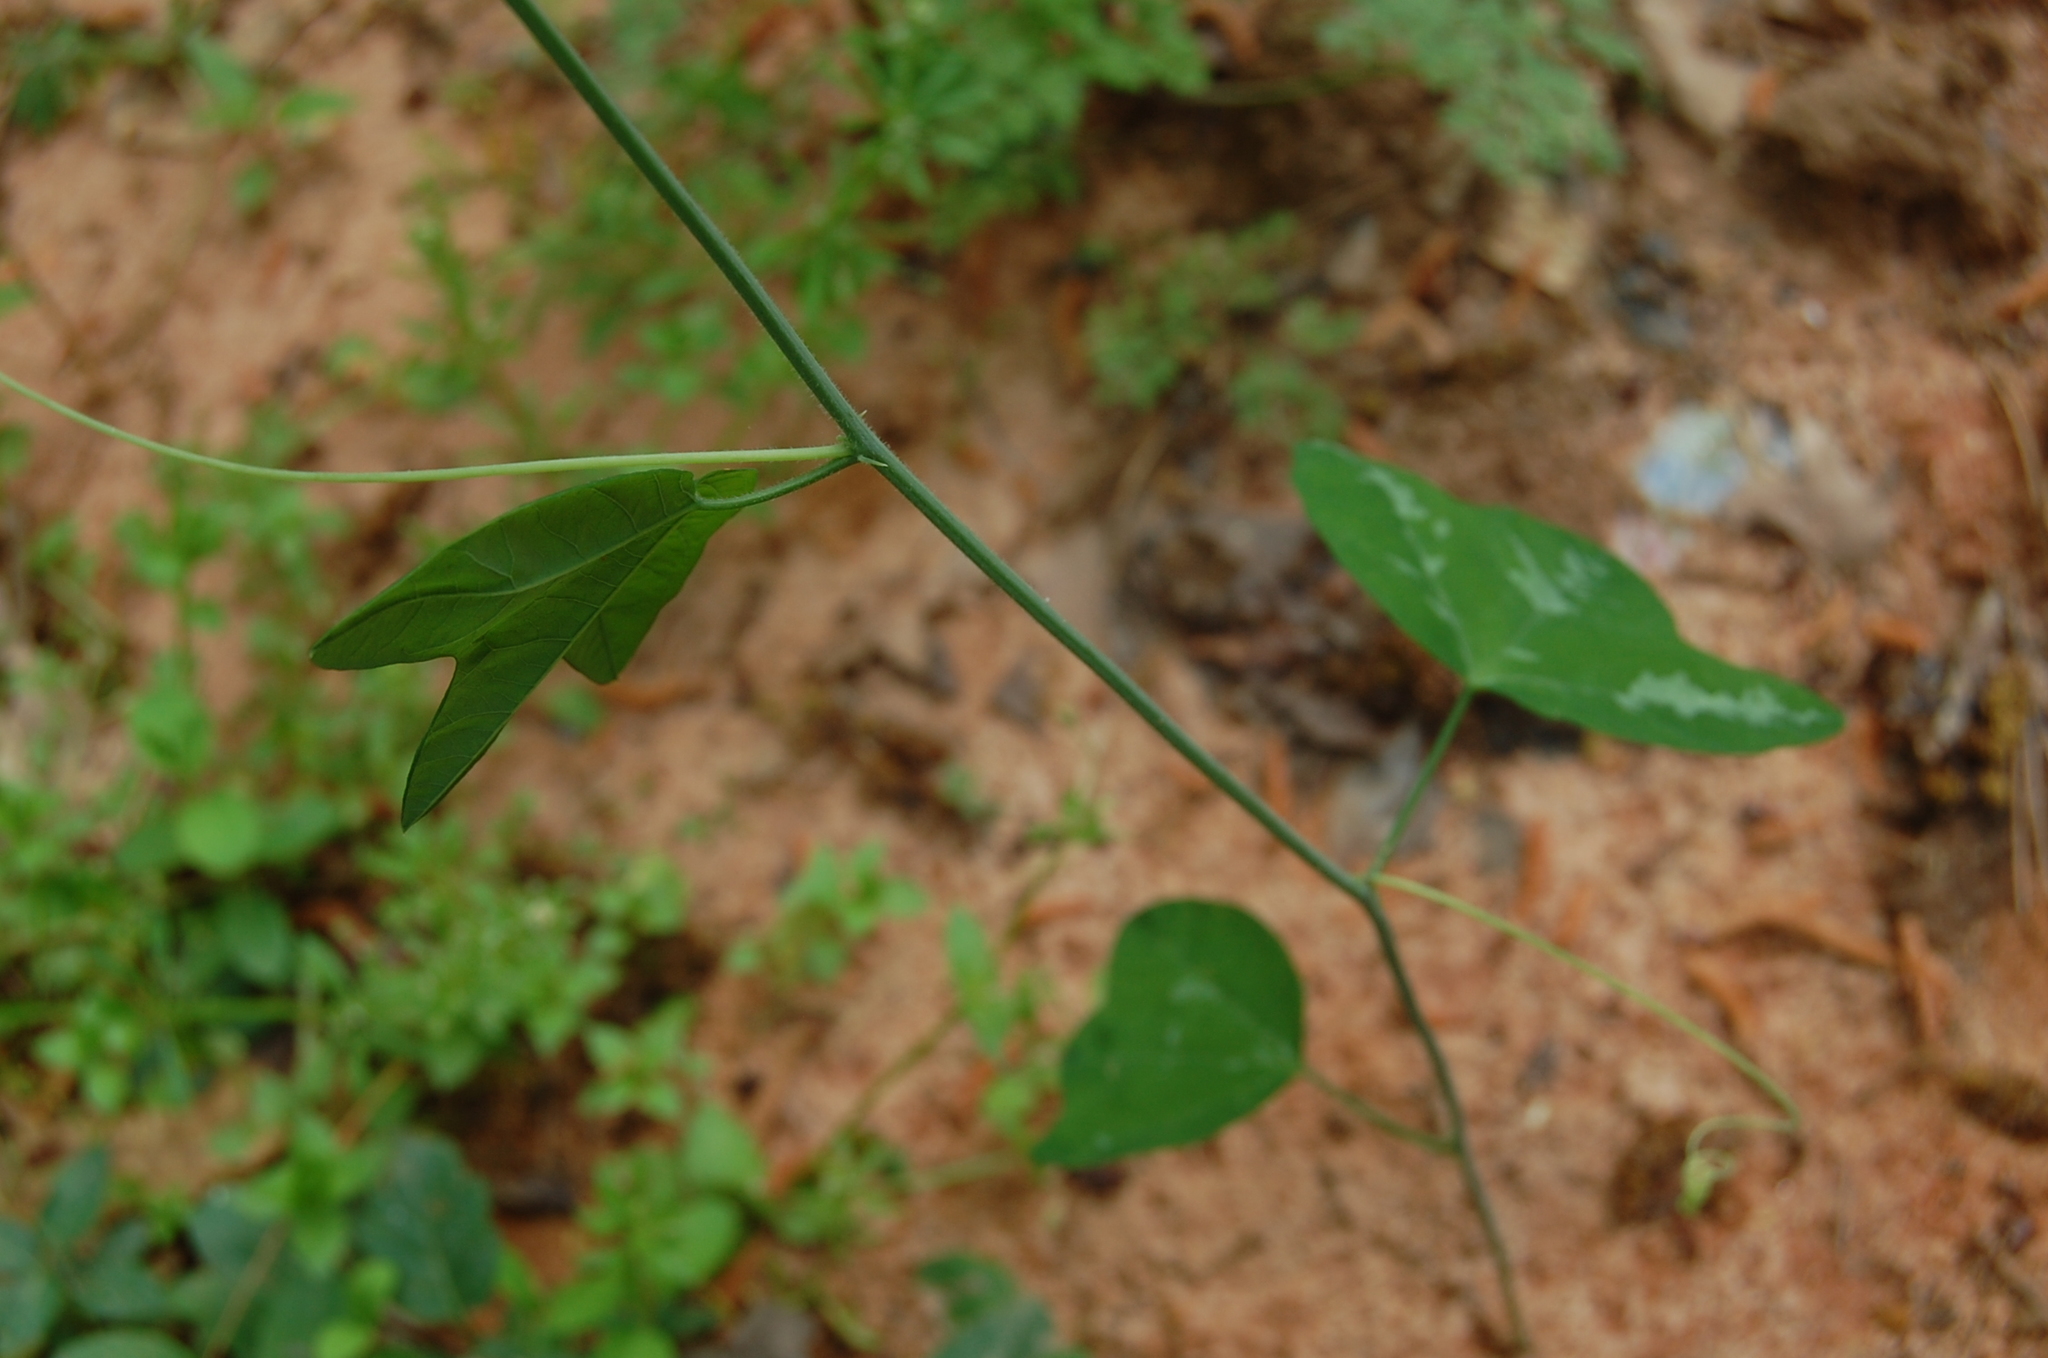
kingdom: Plantae
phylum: Tracheophyta
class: Magnoliopsida
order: Malpighiales
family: Passifloraceae
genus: Passiflora
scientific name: Passiflora lutea
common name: Yellow passionflower
